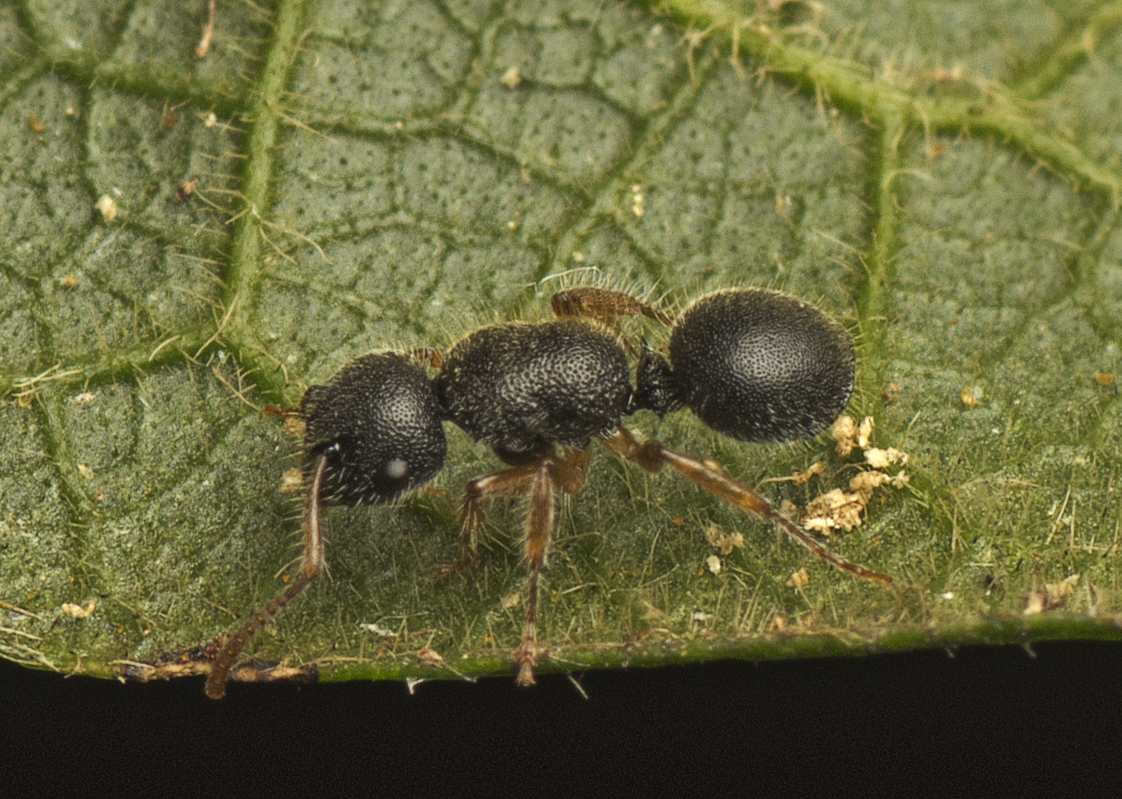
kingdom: Animalia
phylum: Arthropoda
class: Insecta
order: Hymenoptera
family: Formicidae
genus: Echinopla
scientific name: Echinopla turneri
